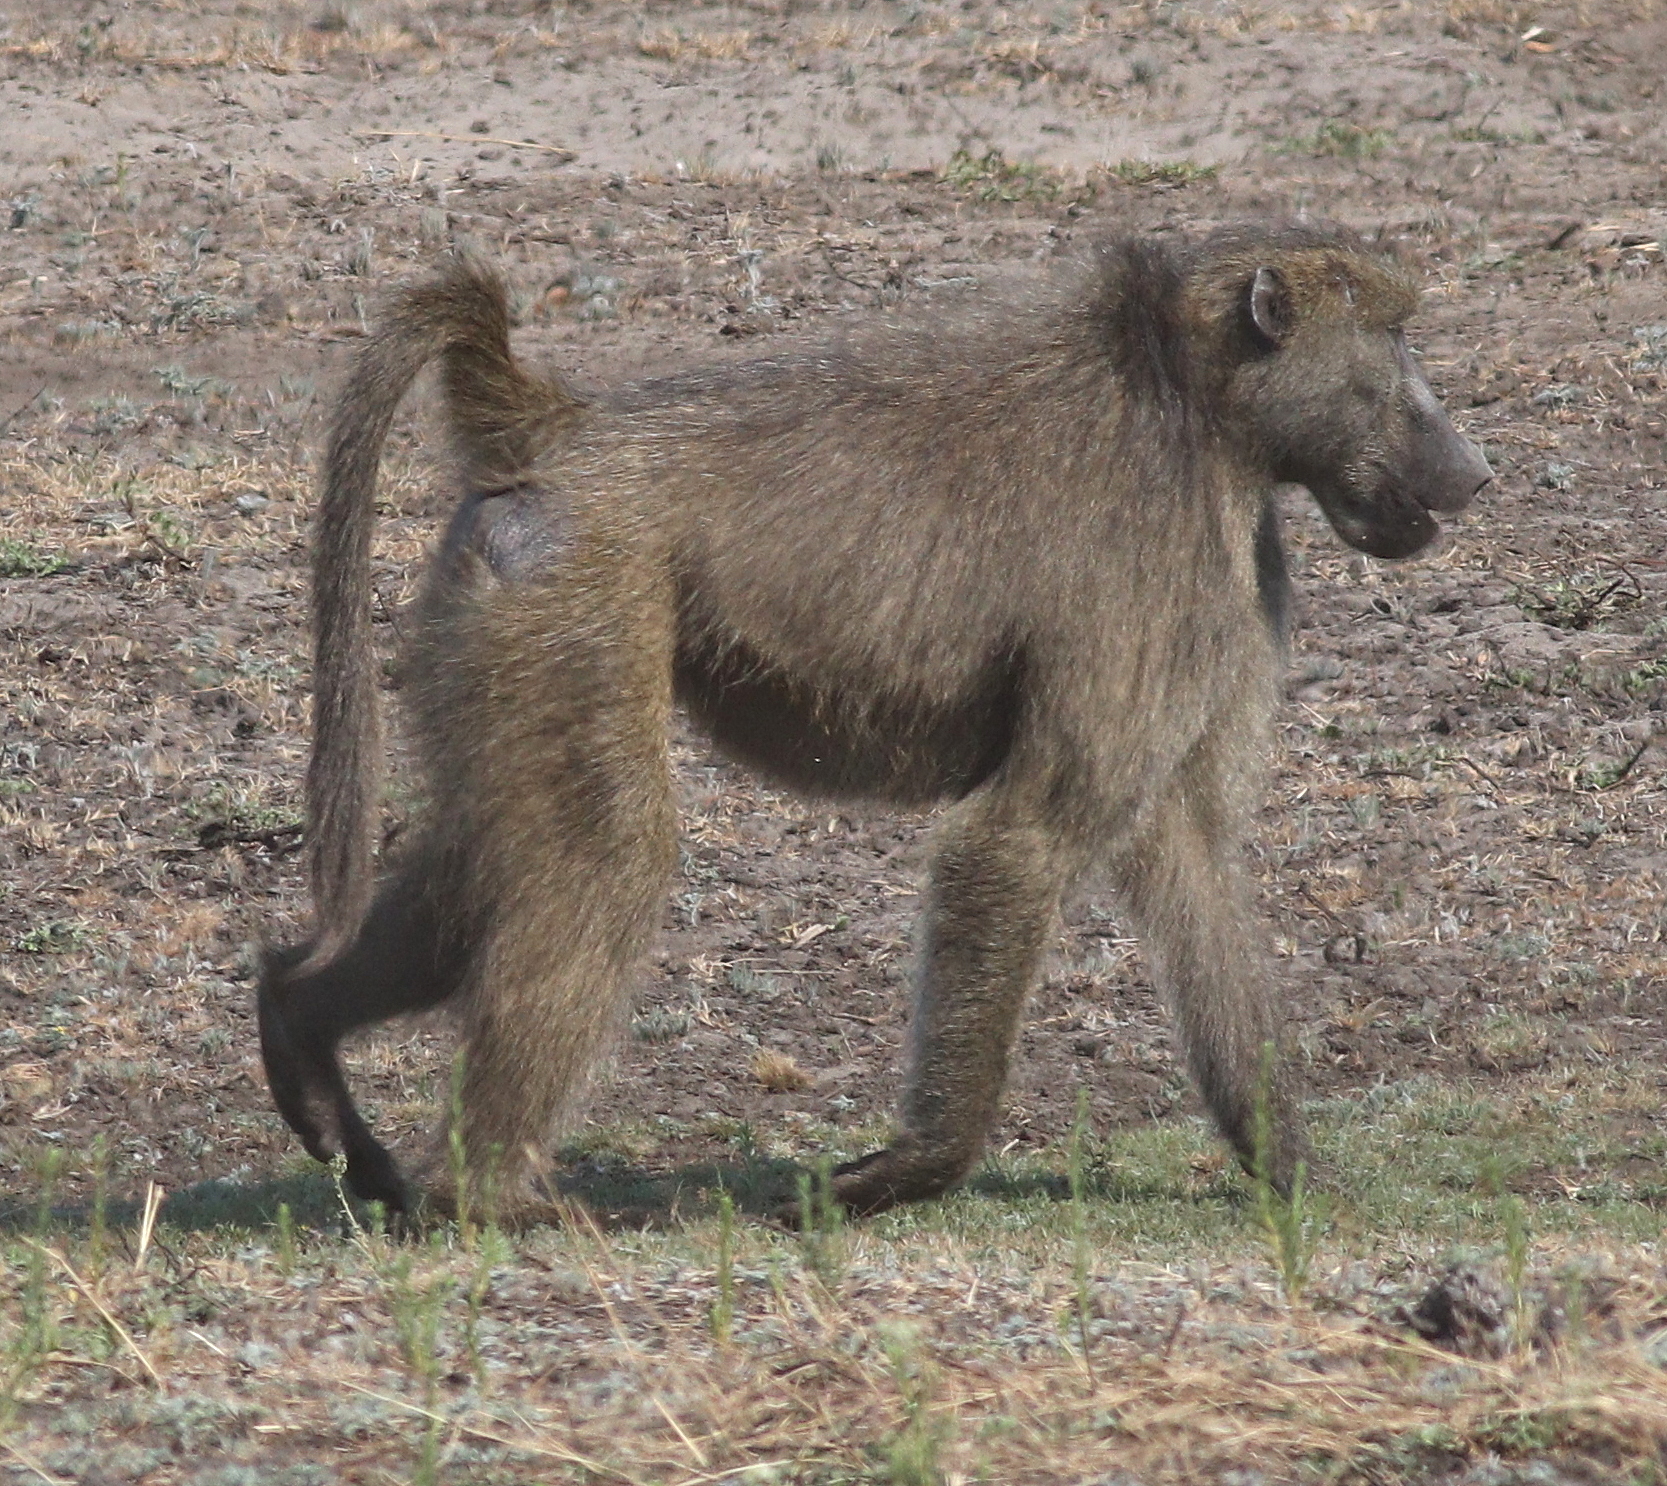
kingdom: Animalia
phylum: Chordata
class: Mammalia
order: Primates
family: Cercopithecidae
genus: Papio
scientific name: Papio ursinus
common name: Chacma baboon
